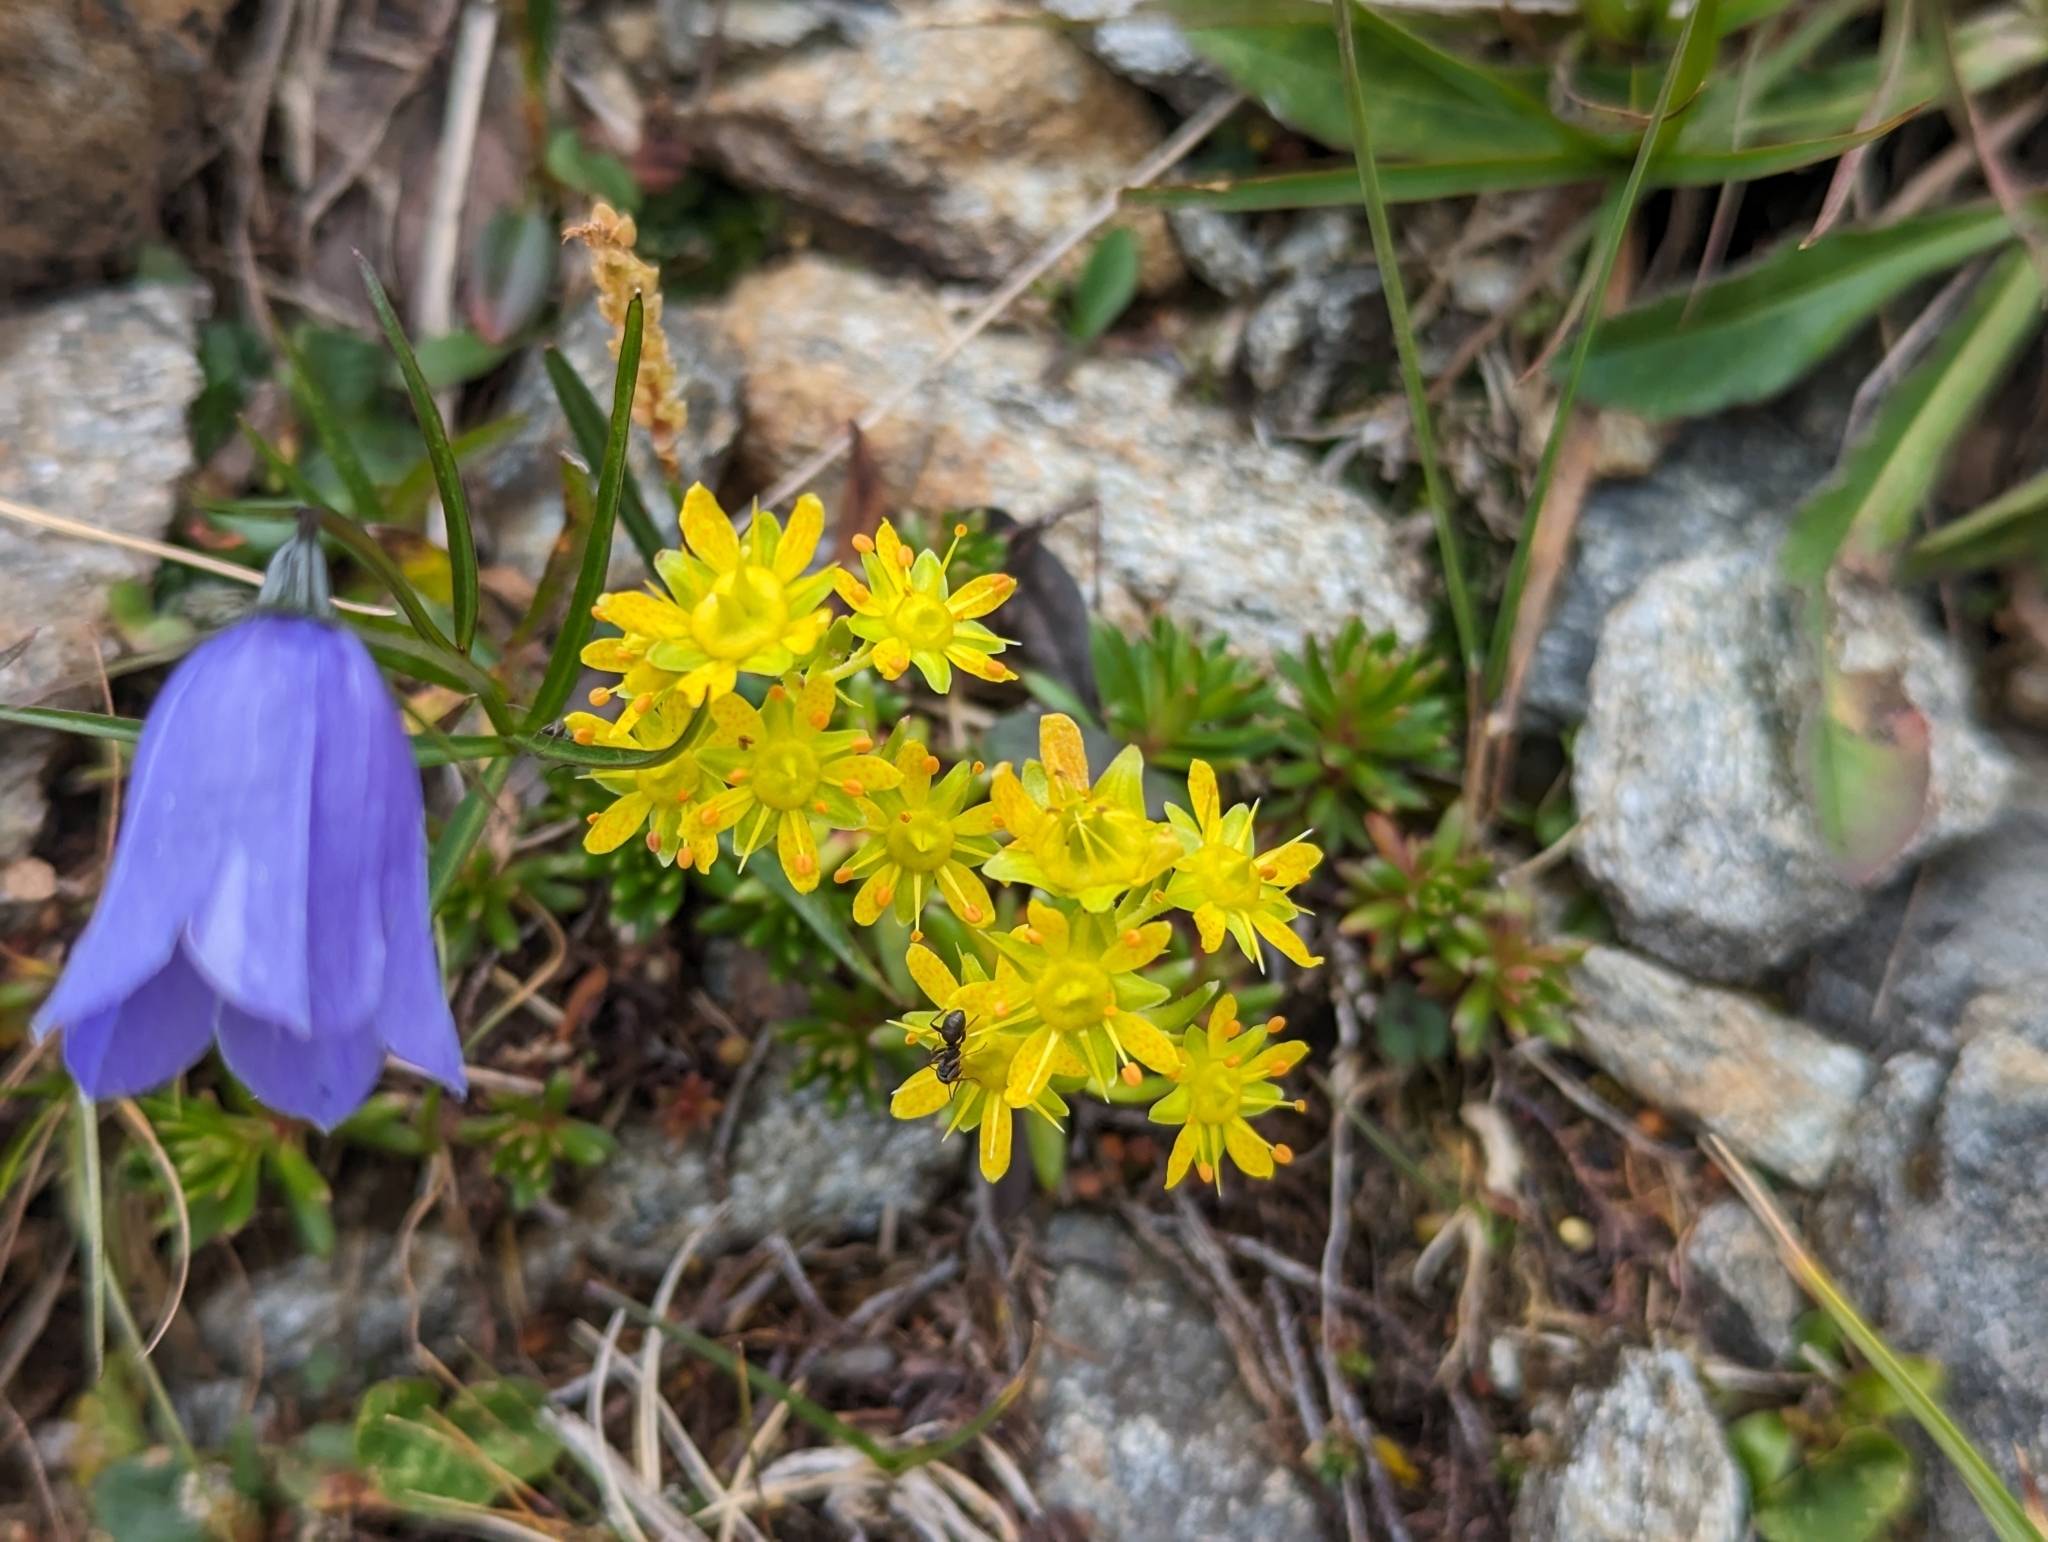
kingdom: Plantae
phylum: Tracheophyta
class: Magnoliopsida
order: Saxifragales
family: Saxifragaceae
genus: Saxifraga
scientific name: Saxifraga aizoides
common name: Yellow mountain saxifrage
